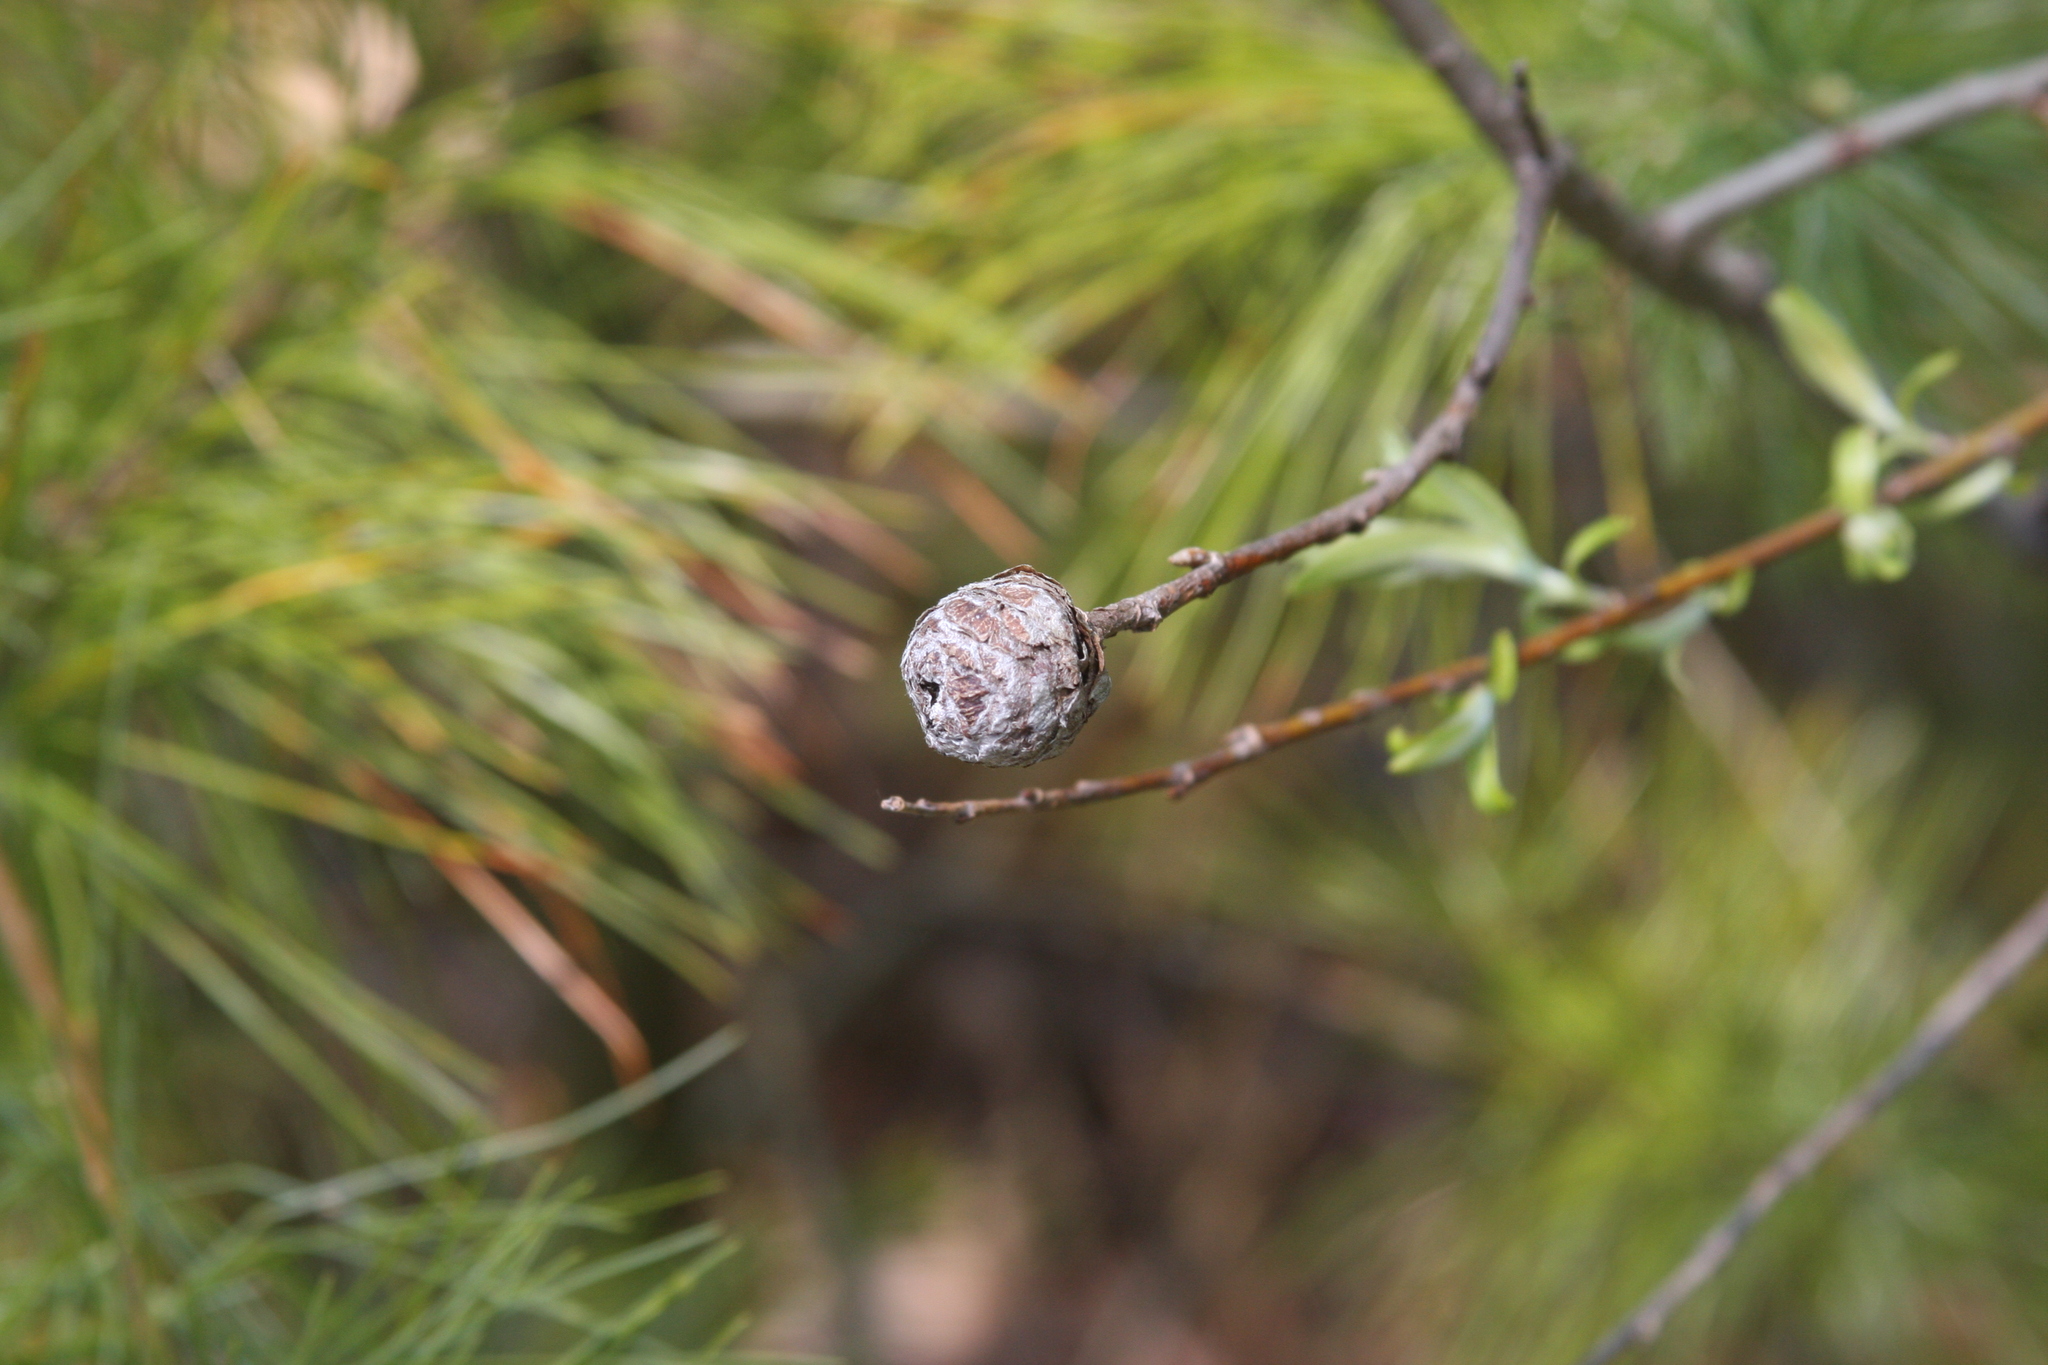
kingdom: Animalia
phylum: Arthropoda
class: Insecta
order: Diptera
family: Cecidomyiidae
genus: Rabdophaga
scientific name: Rabdophaga strobiloides
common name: Willow pinecone gall midge
